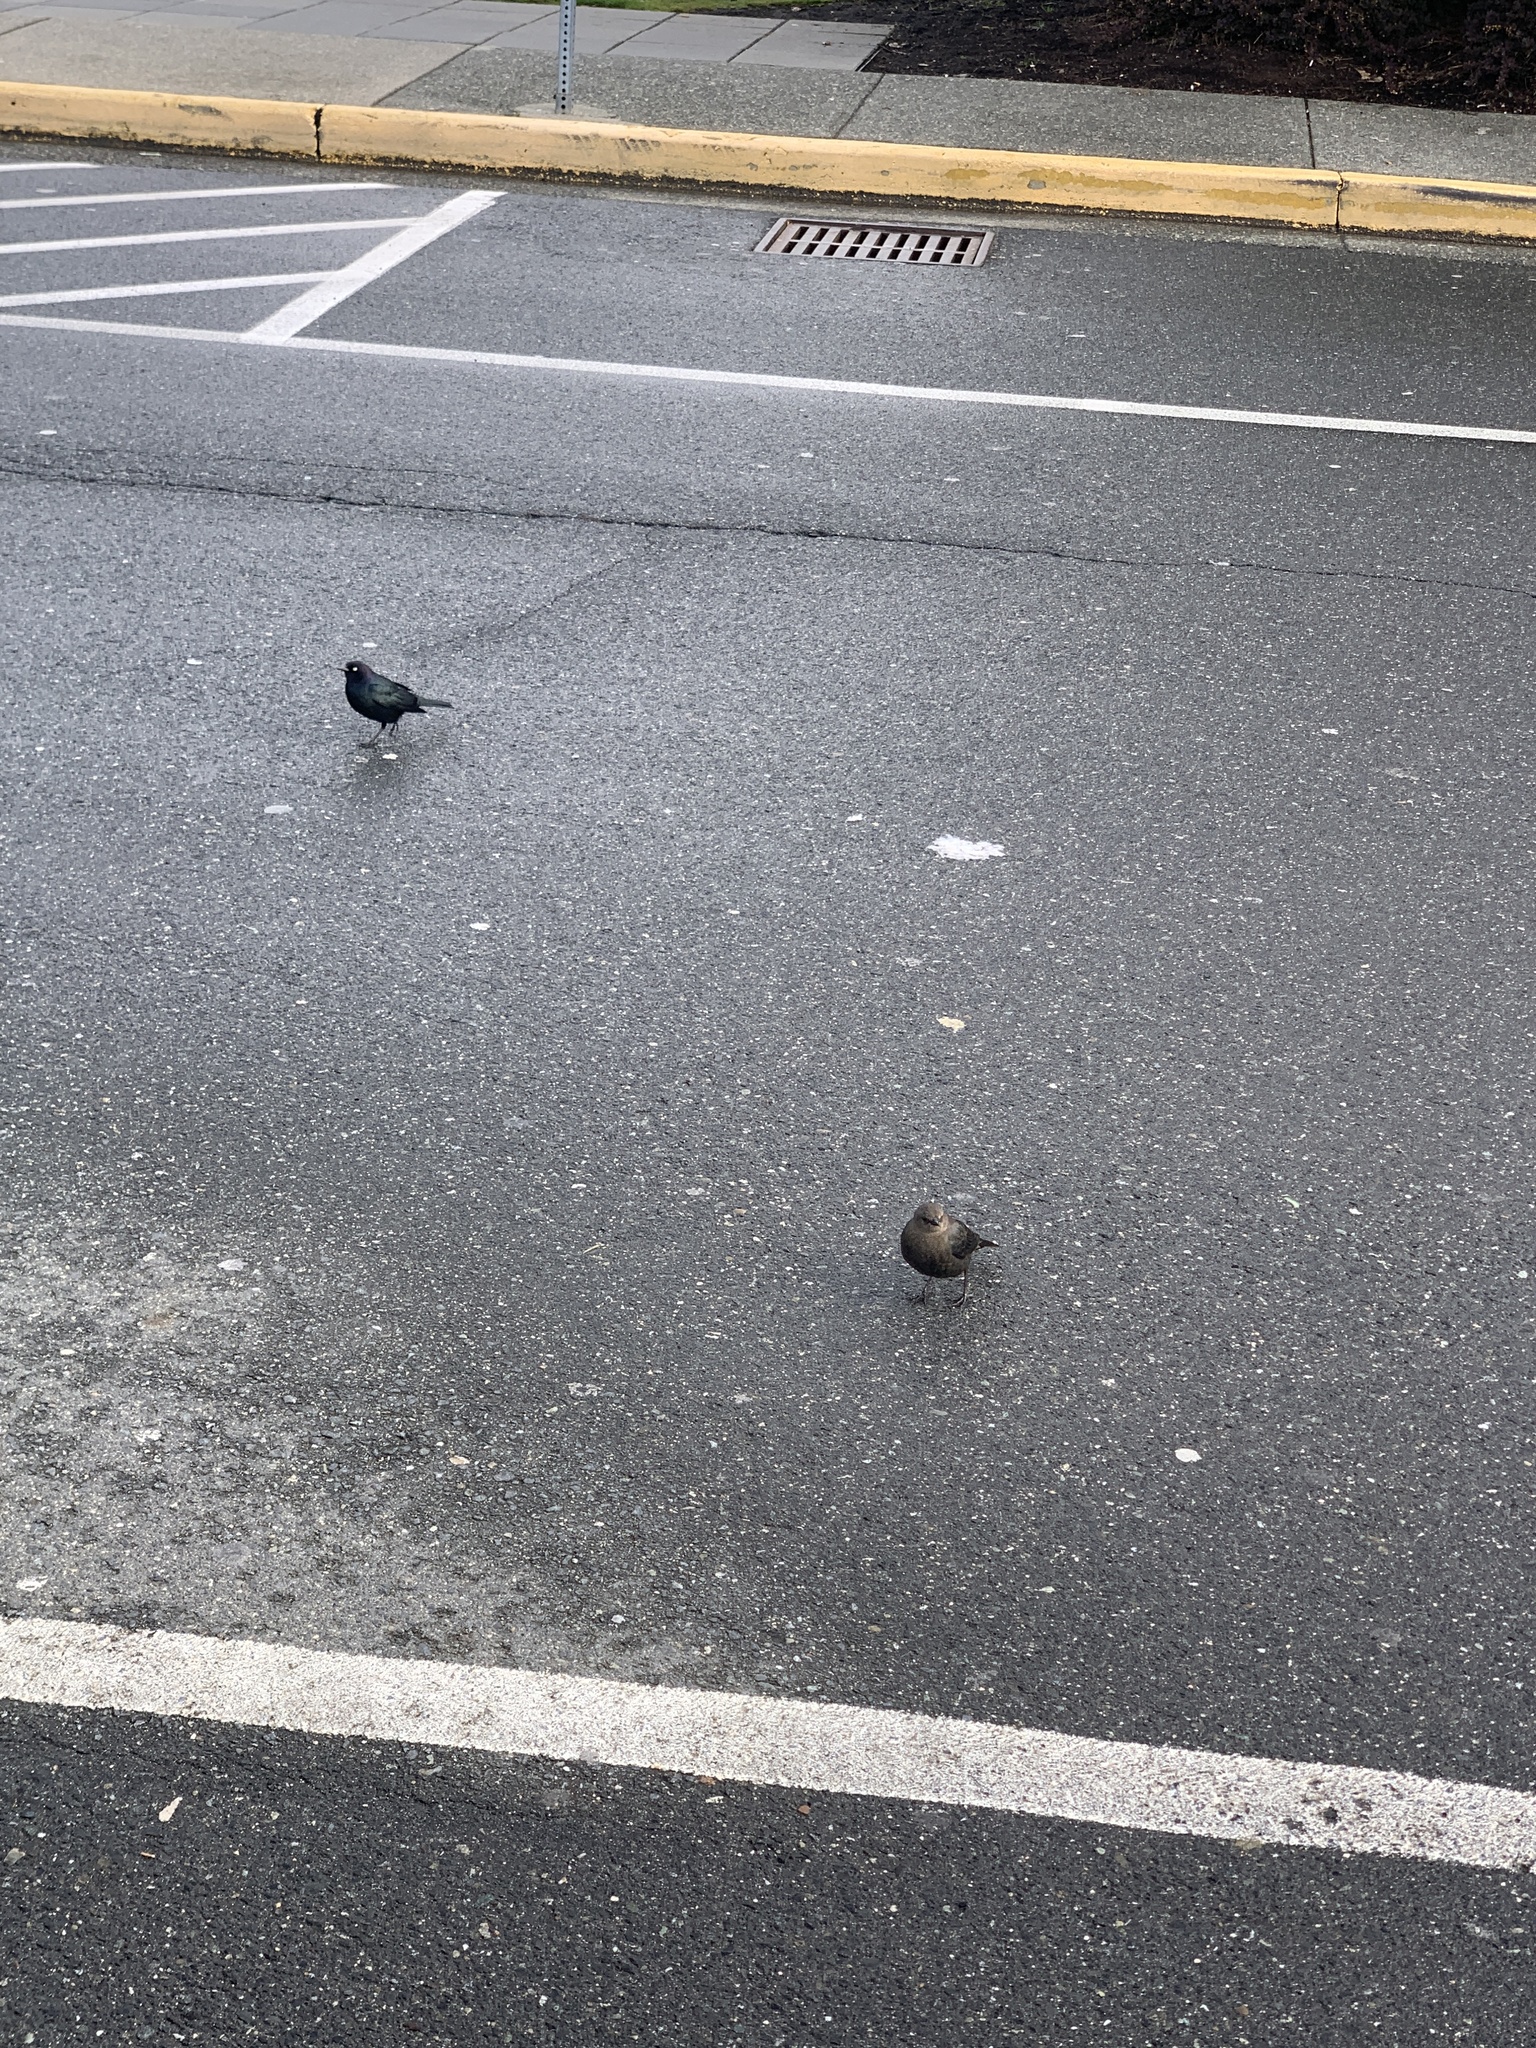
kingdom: Animalia
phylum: Chordata
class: Aves
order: Passeriformes
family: Icteridae
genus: Euphagus
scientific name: Euphagus cyanocephalus
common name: Brewer's blackbird
